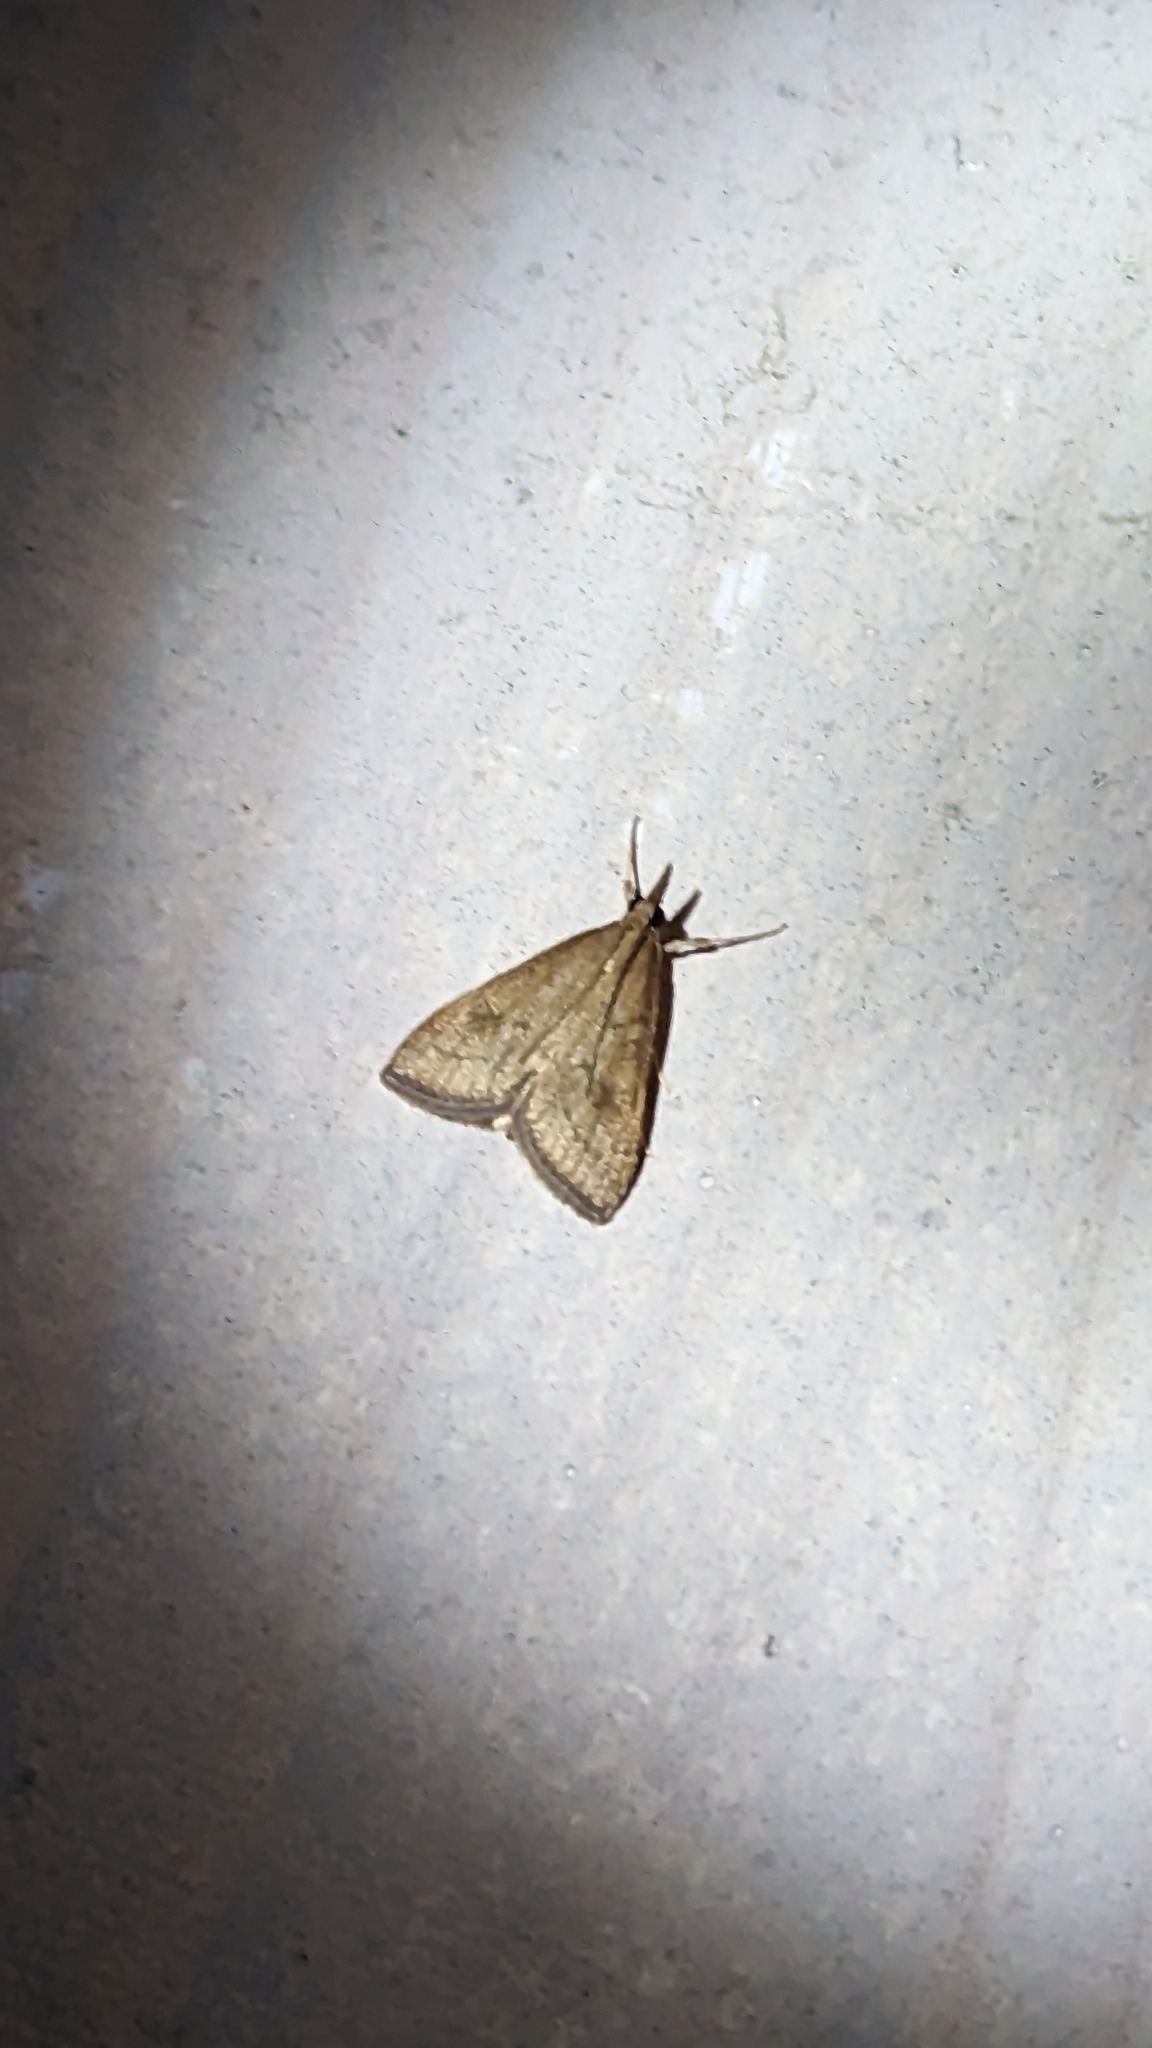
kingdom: Animalia
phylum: Arthropoda
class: Insecta
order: Lepidoptera
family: Crambidae
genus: Udea
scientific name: Udea rubigalis
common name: Celery leaftier moth
